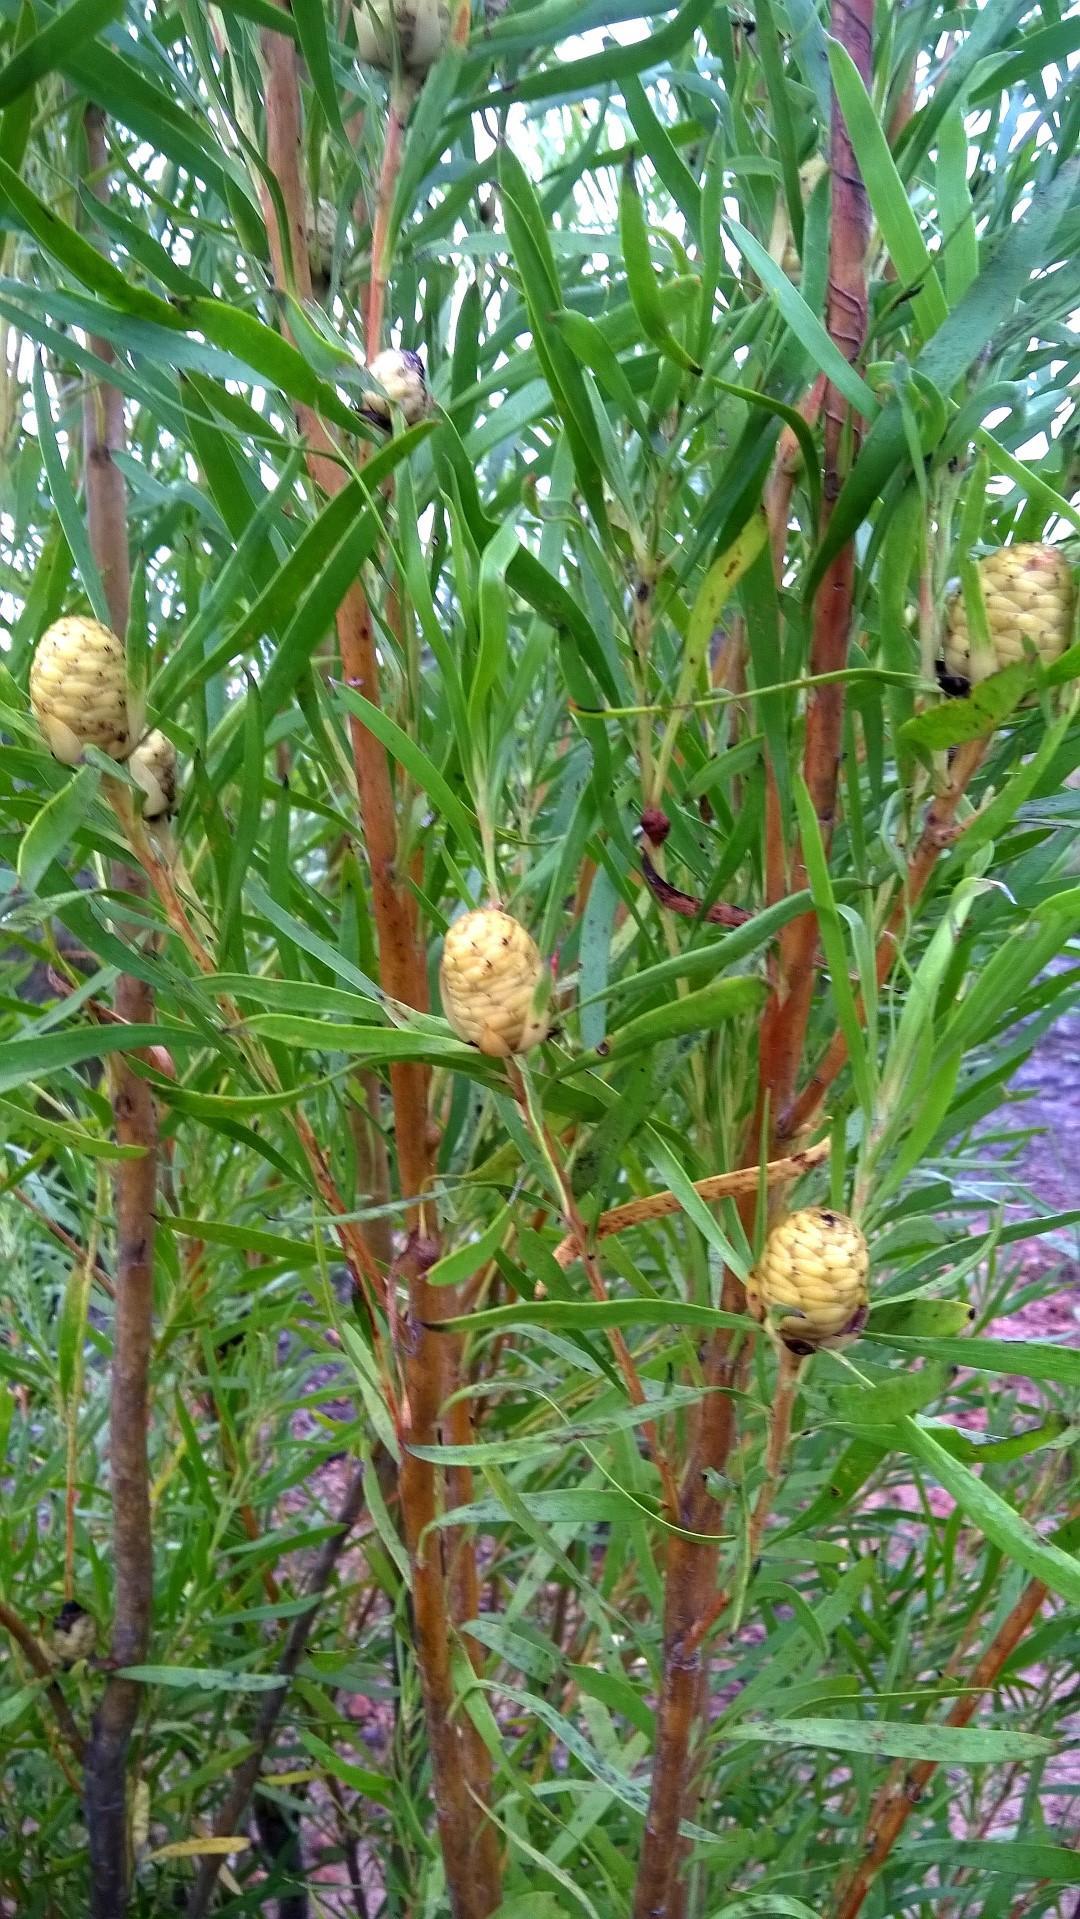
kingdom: Plantae
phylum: Tracheophyta
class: Magnoliopsida
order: Proteales
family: Proteaceae
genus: Leucadendron
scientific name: Leucadendron eucalyptifolium
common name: Gum-leaved conebush
